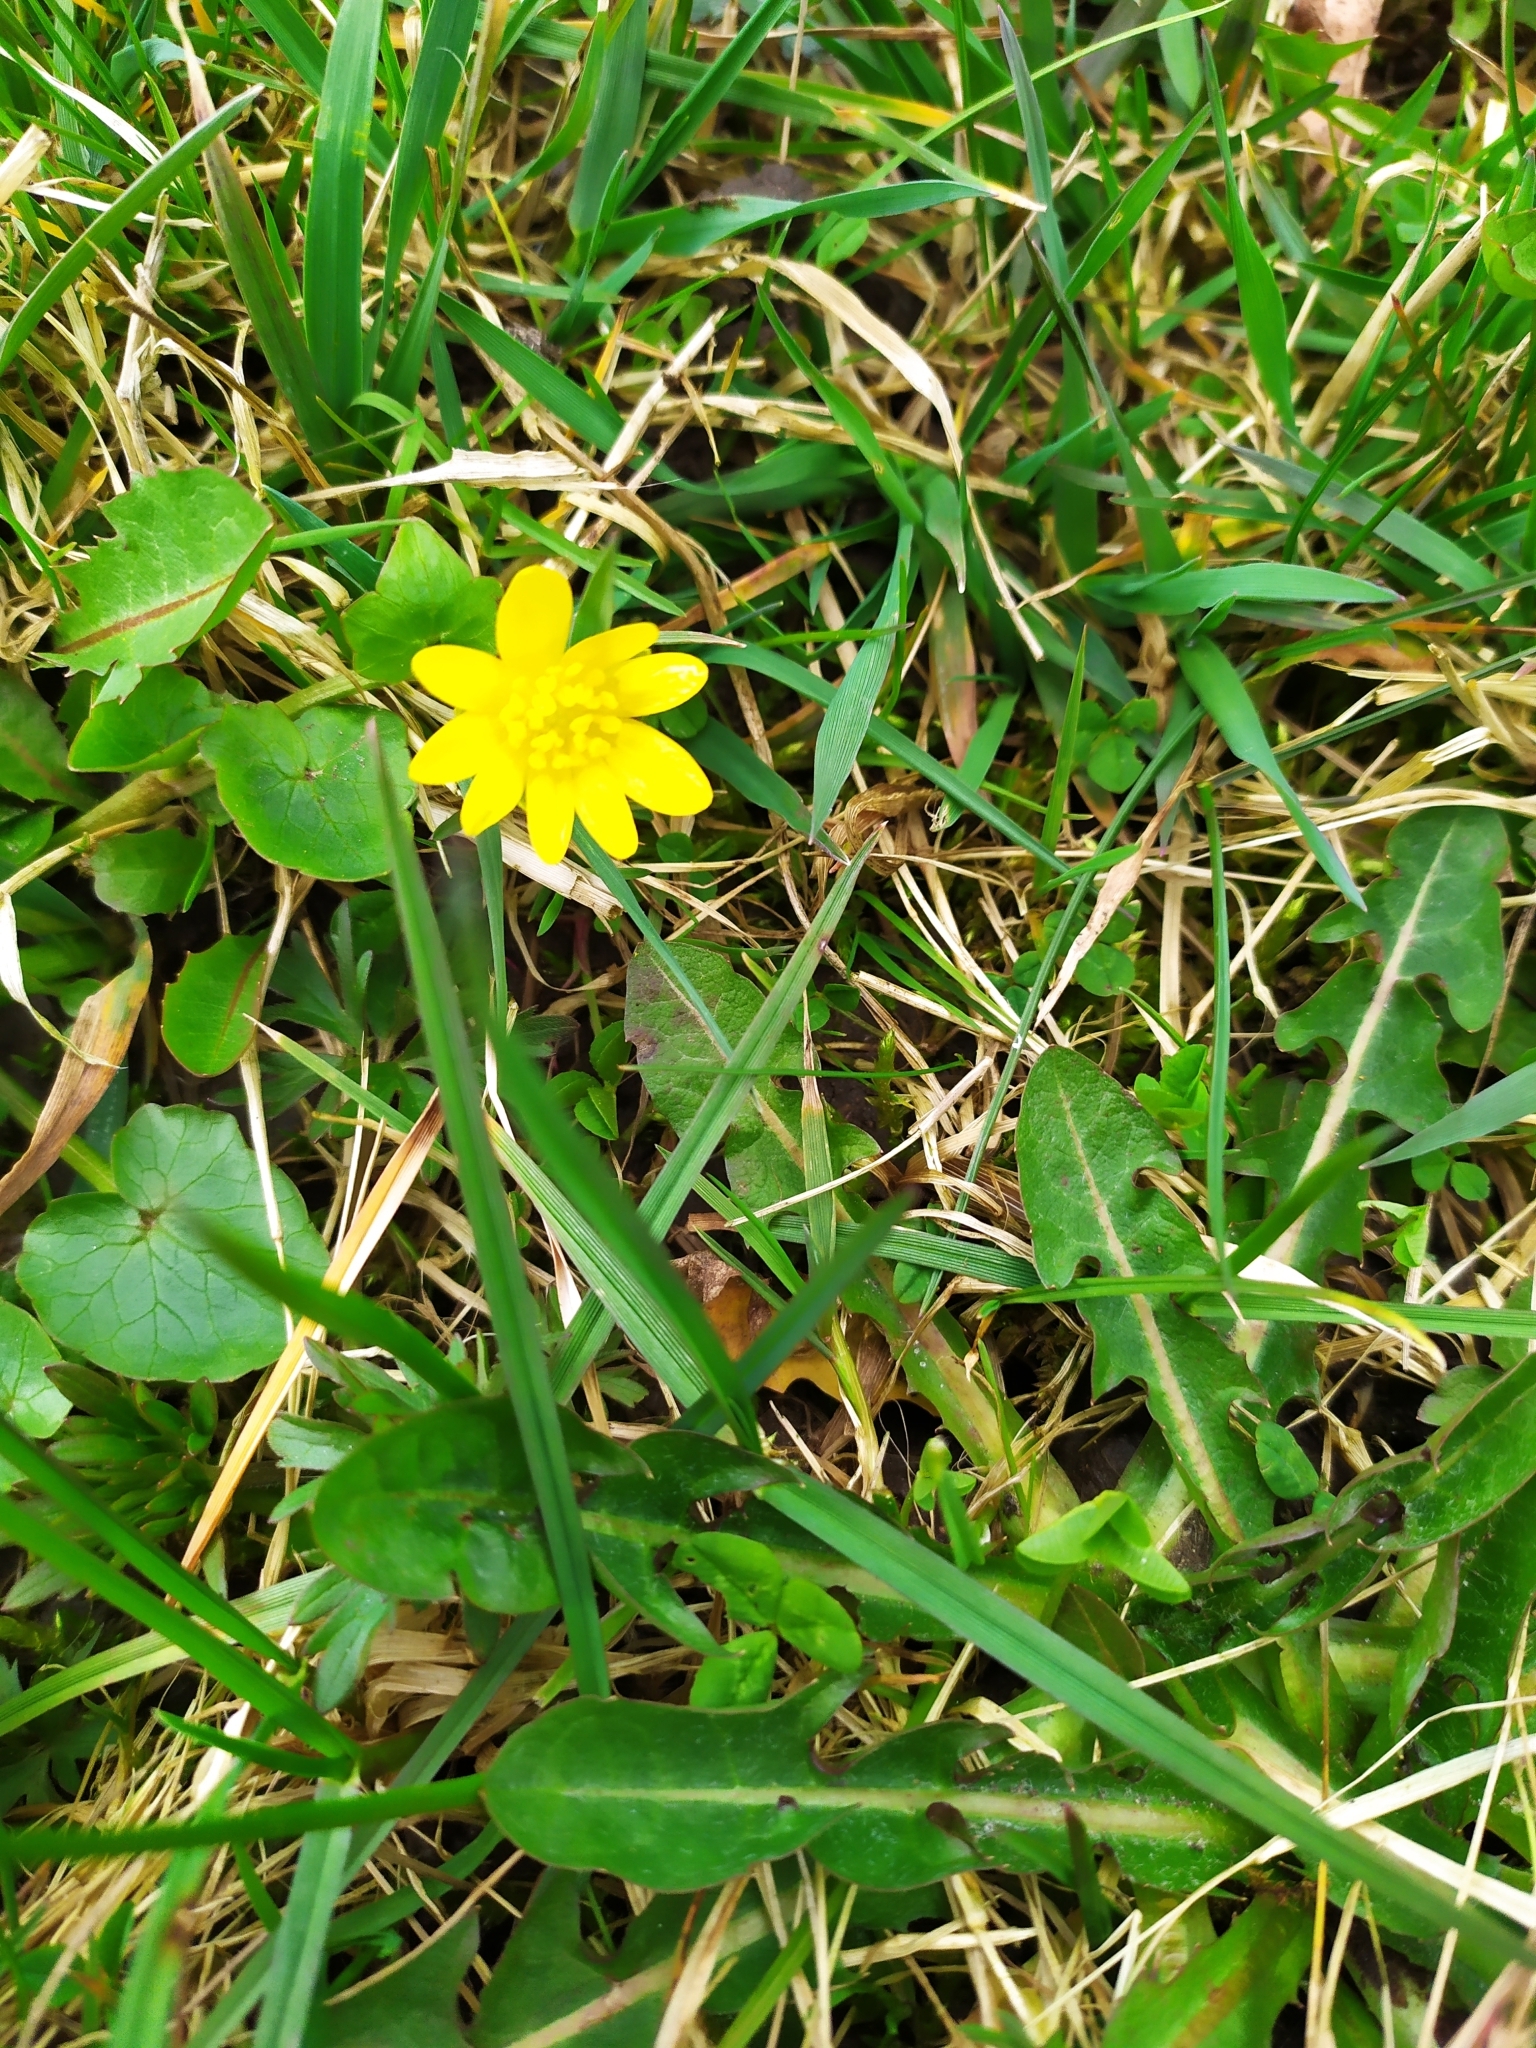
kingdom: Plantae
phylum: Tracheophyta
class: Magnoliopsida
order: Ranunculales
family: Ranunculaceae
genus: Ficaria
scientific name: Ficaria verna
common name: Lesser celandine
